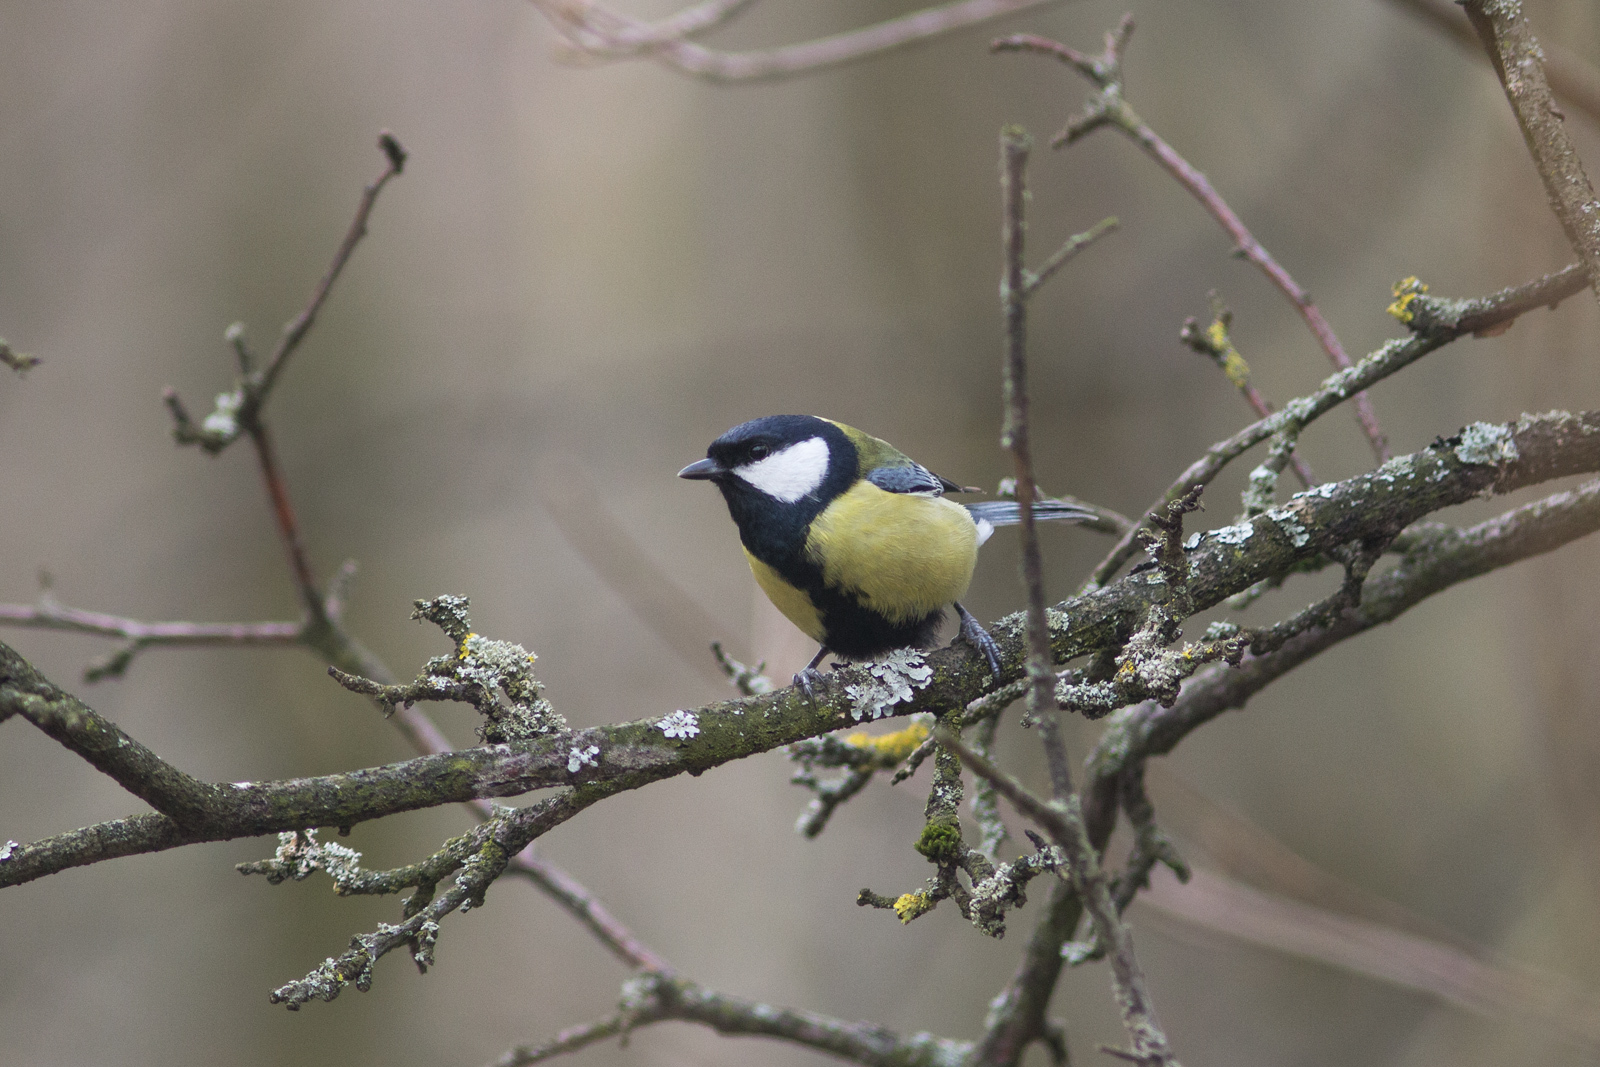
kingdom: Animalia
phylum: Chordata
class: Aves
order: Passeriformes
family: Paridae
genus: Parus
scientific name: Parus major
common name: Great tit
